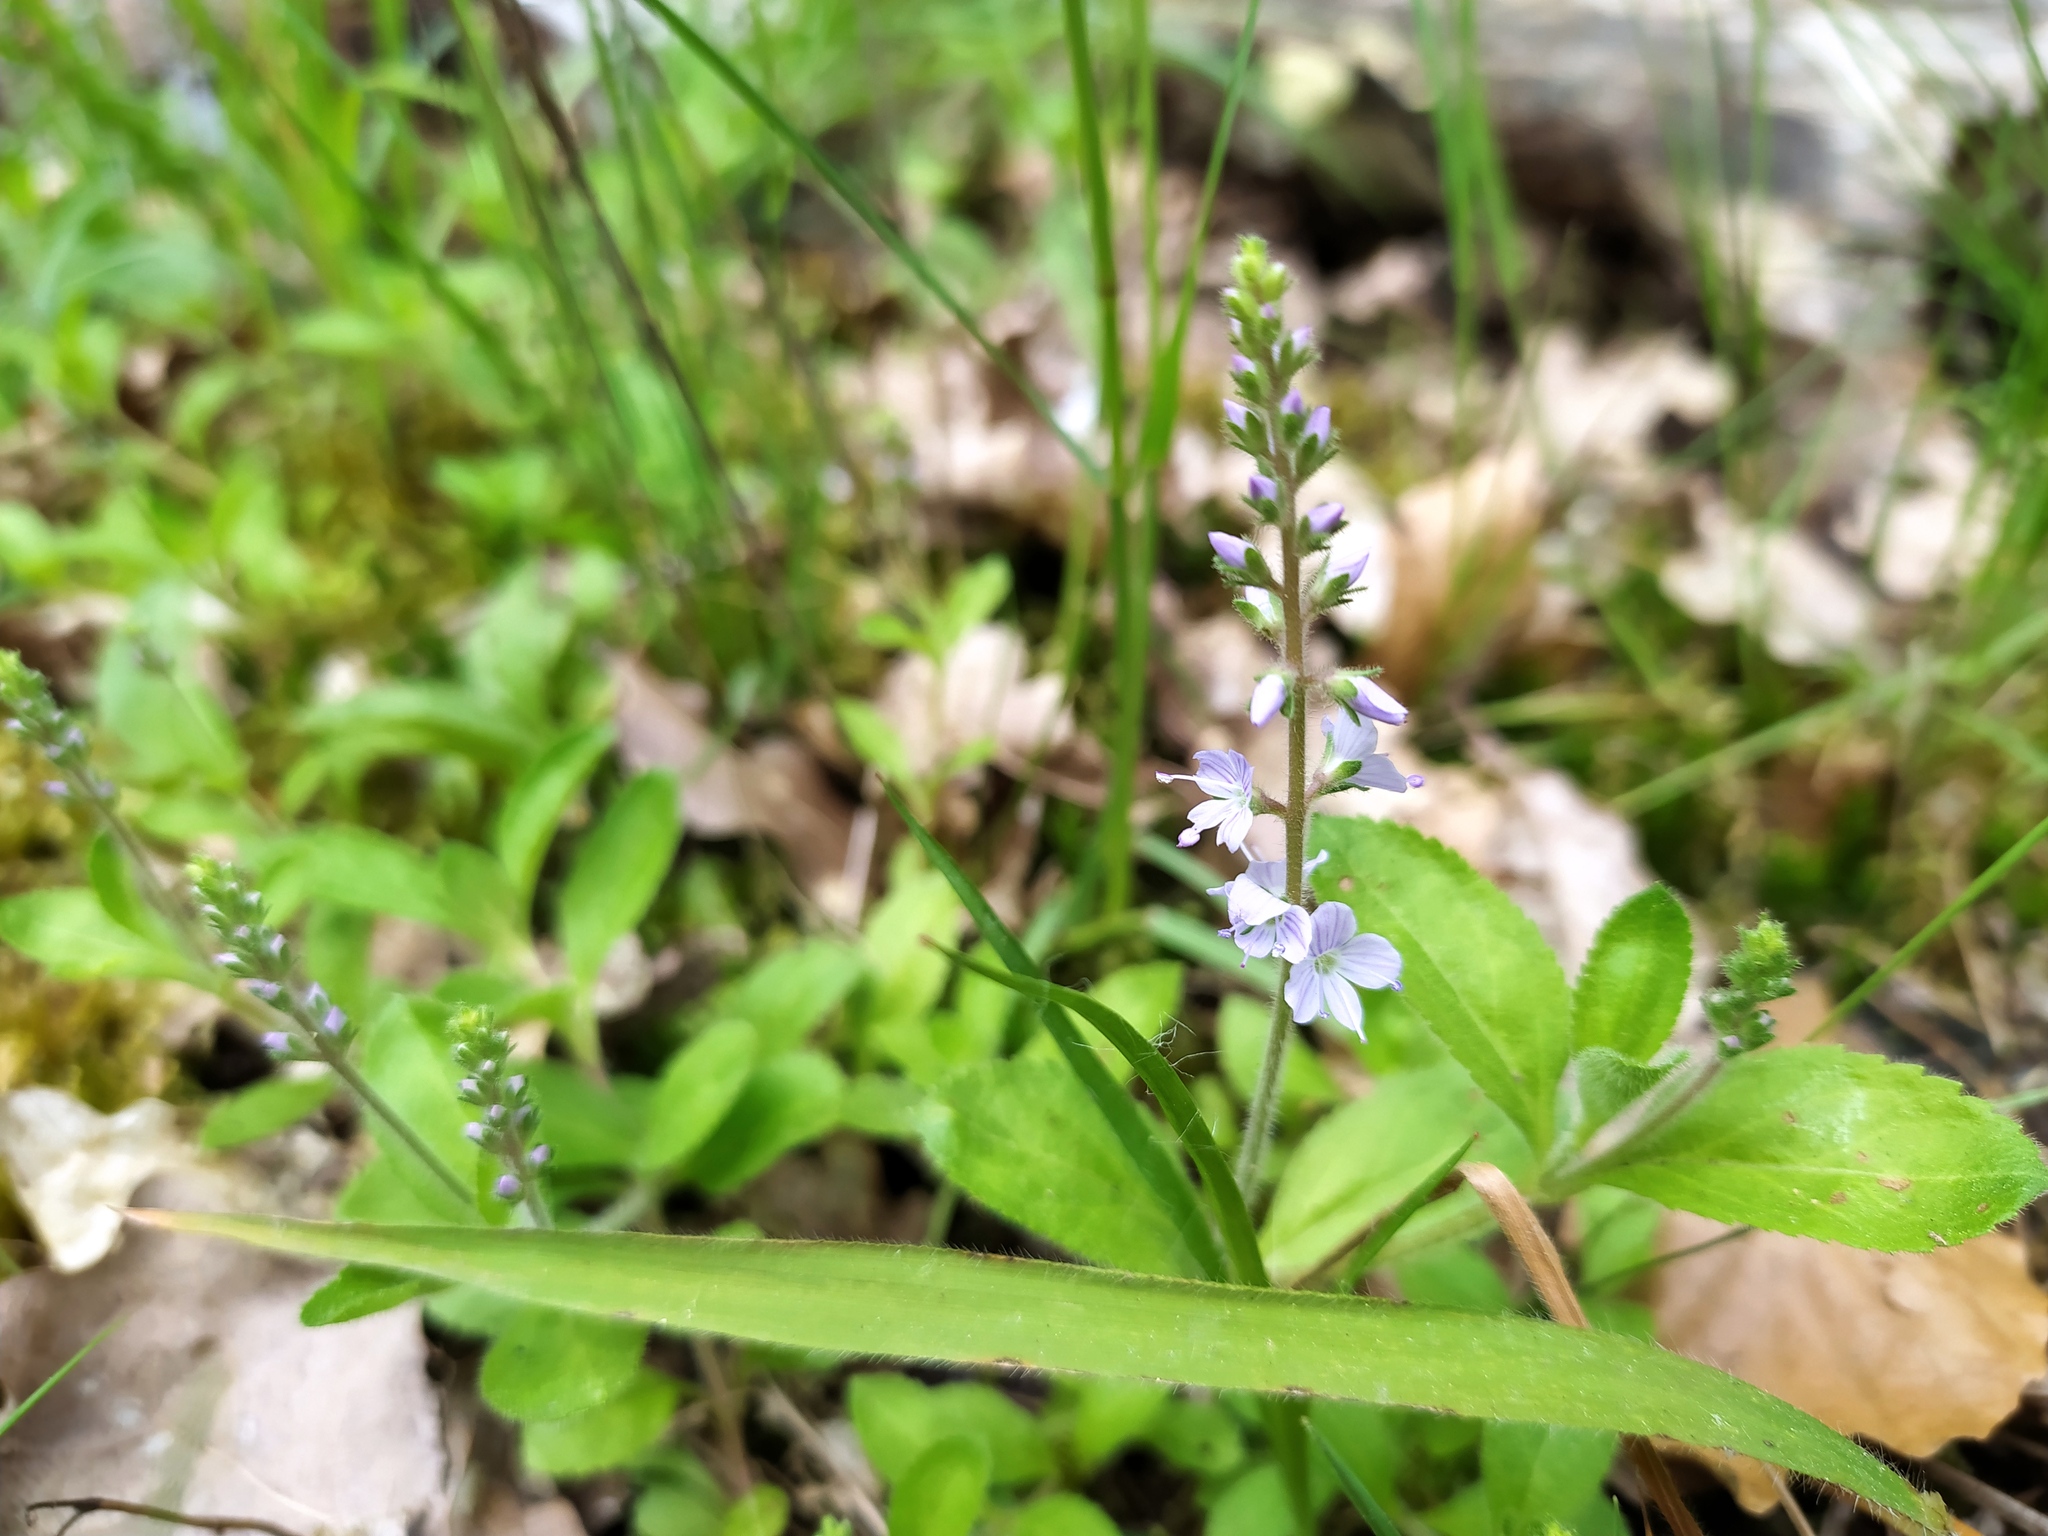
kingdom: Plantae
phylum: Tracheophyta
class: Magnoliopsida
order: Lamiales
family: Plantaginaceae
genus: Veronica
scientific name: Veronica officinalis
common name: Common speedwell
